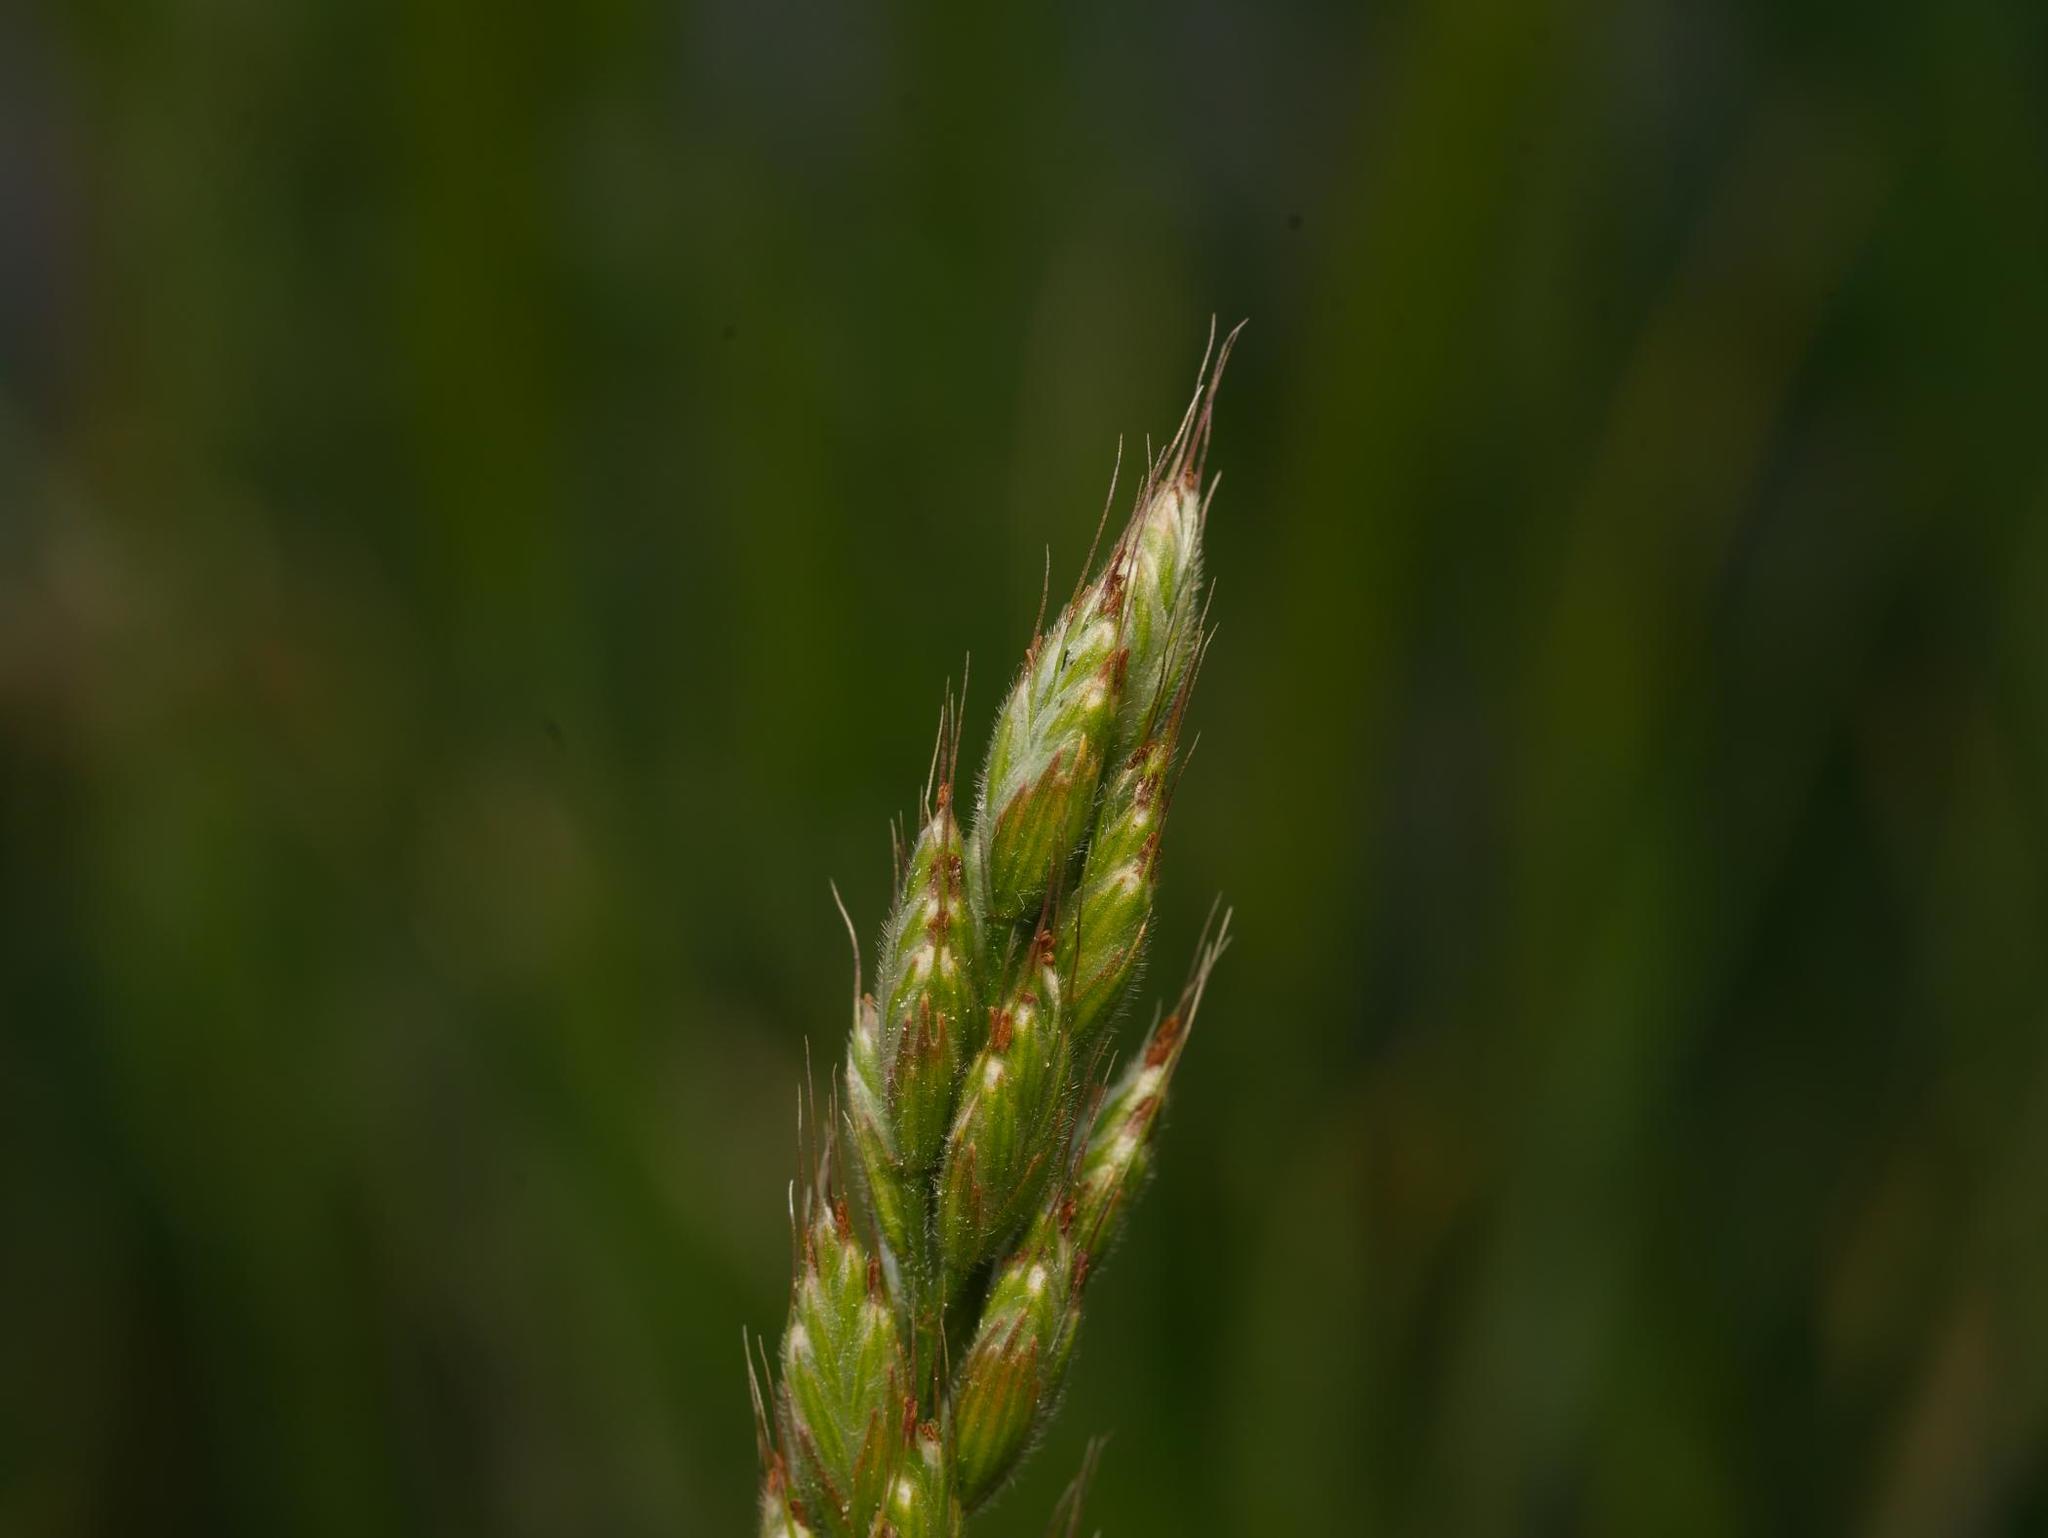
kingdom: Plantae
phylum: Tracheophyta
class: Liliopsida
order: Poales
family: Poaceae
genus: Bromus
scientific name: Bromus hordeaceus
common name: Soft brome
